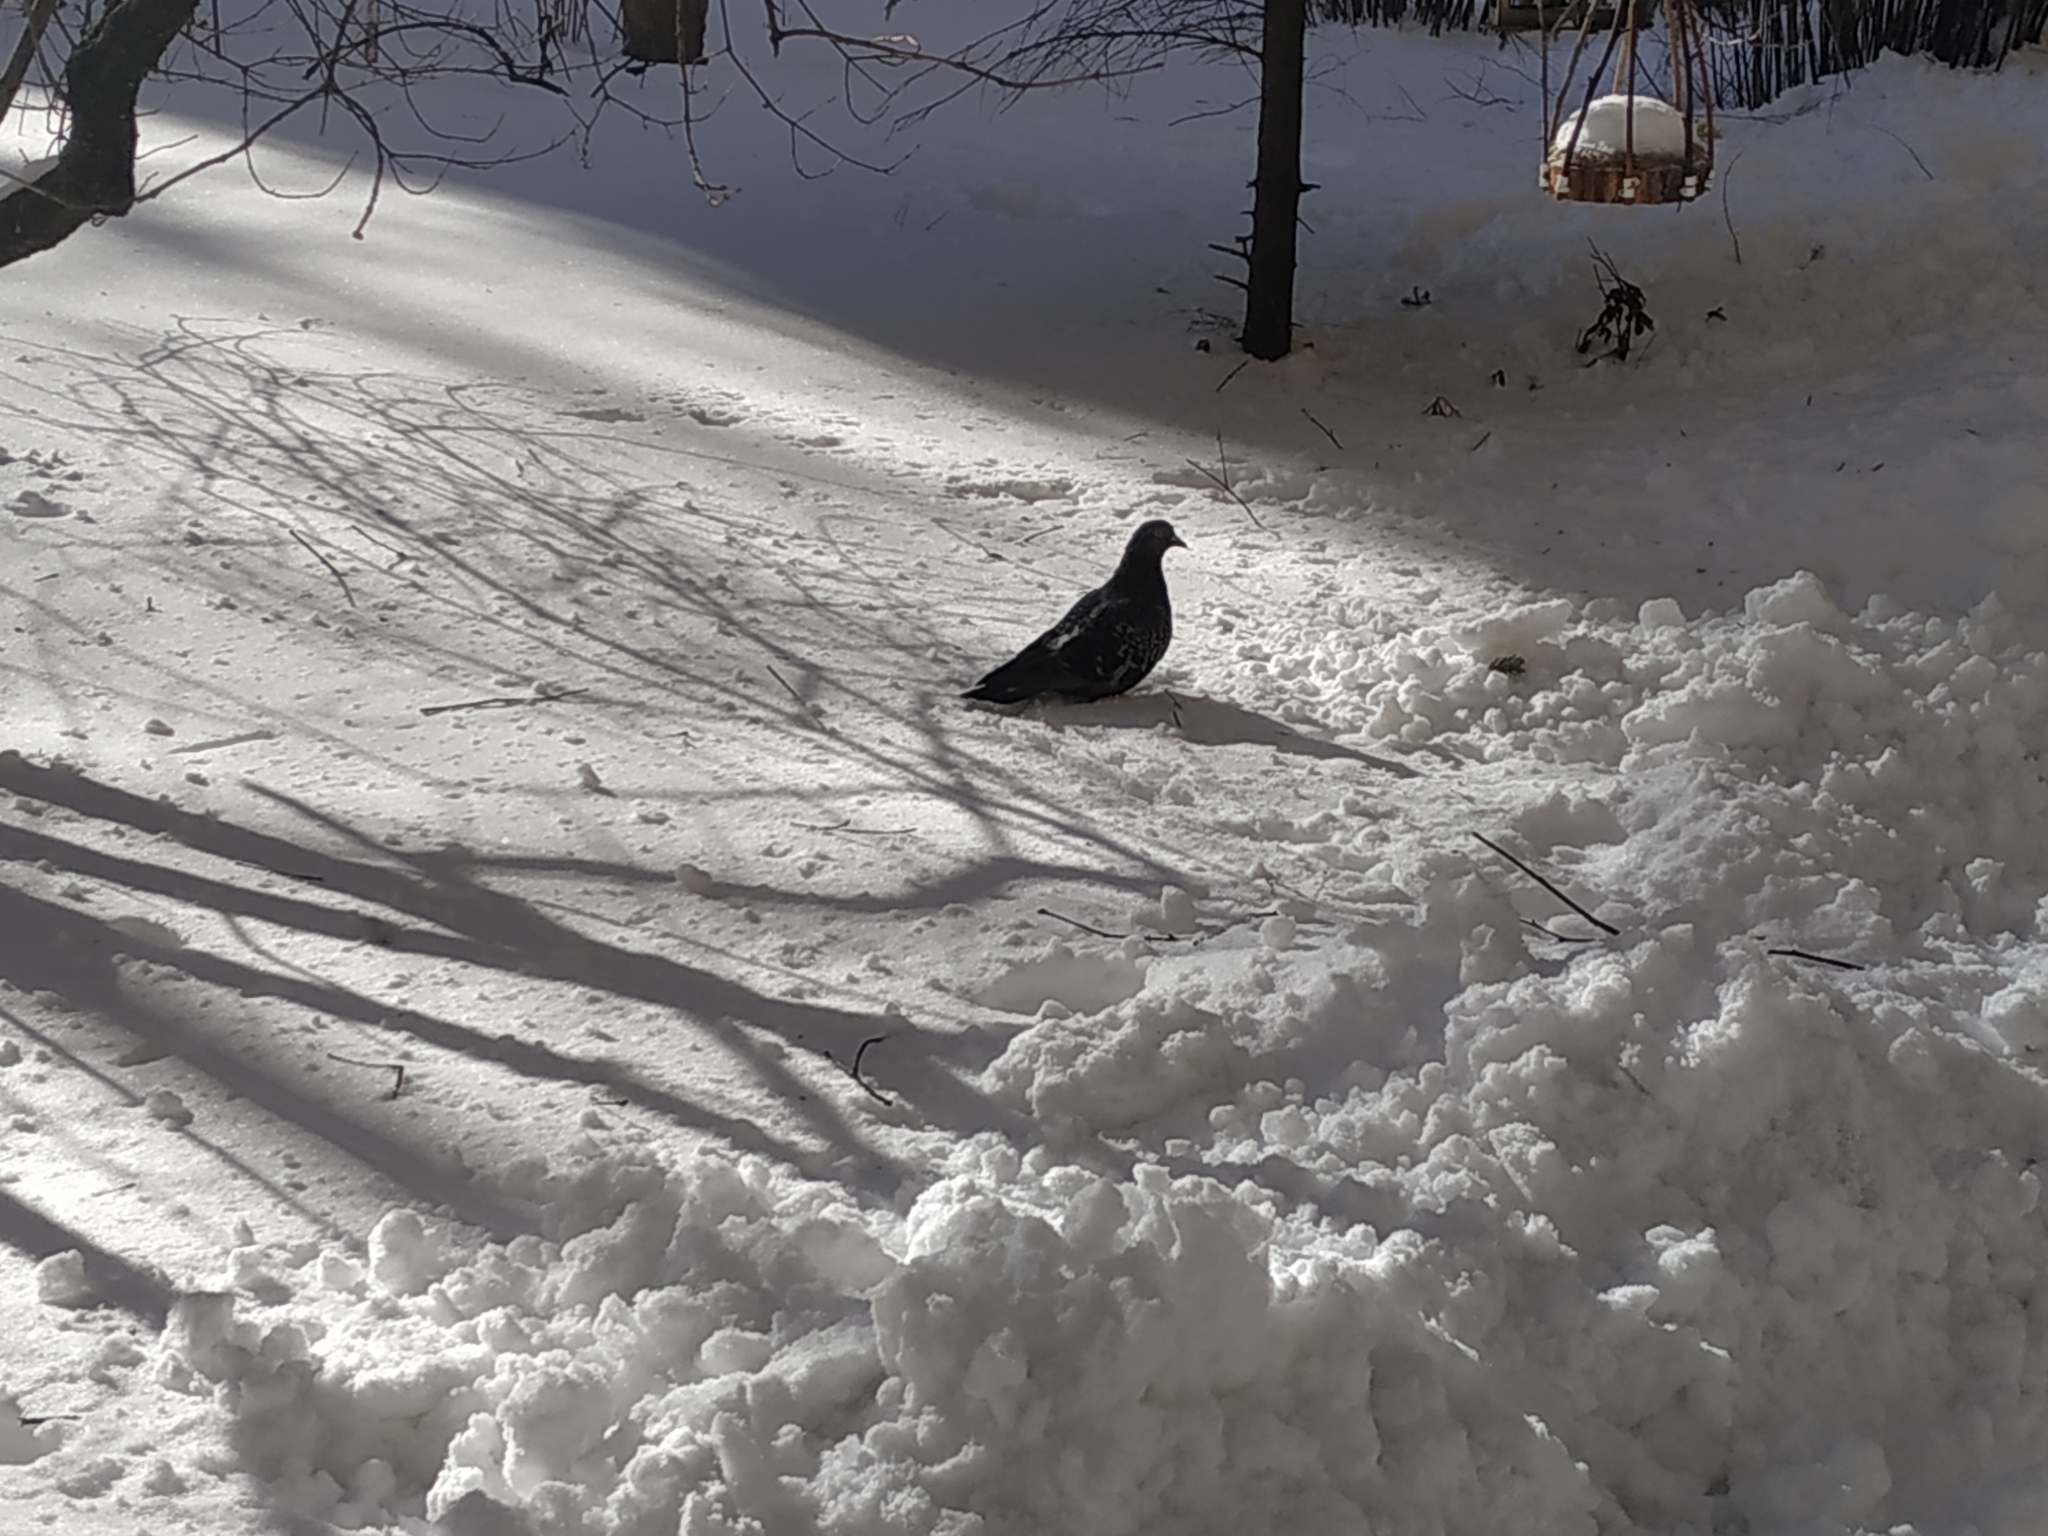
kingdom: Animalia
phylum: Chordata
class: Aves
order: Columbiformes
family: Columbidae
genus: Columba
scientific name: Columba livia
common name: Rock pigeon
